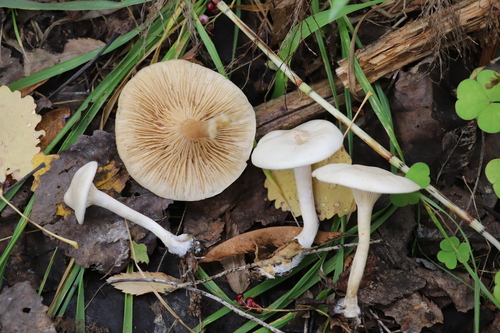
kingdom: Fungi
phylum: Basidiomycota
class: Agaricomycetes
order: Agaricales
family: Tricholomataceae
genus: Clitocybe
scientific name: Clitocybe
